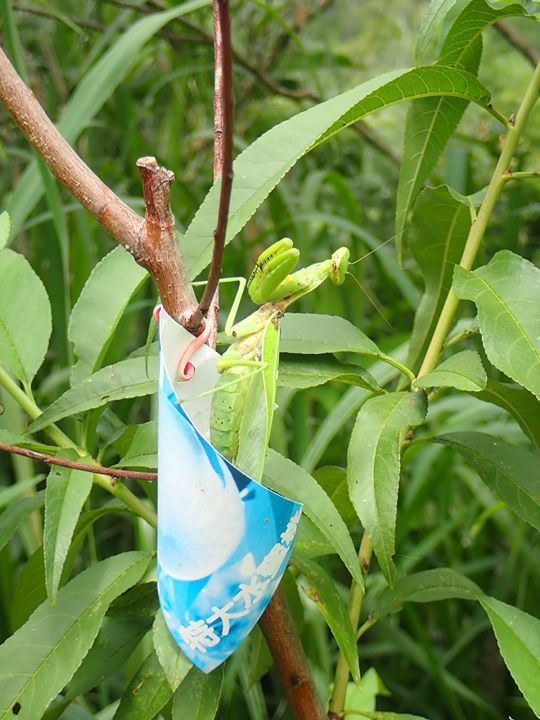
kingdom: Animalia
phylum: Arthropoda
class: Insecta
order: Mantodea
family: Mantidae
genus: Hierodula
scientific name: Hierodula patellifera
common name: Asian mantis
